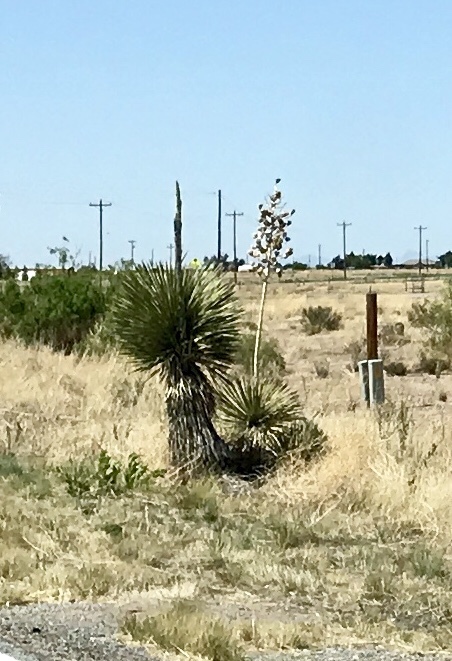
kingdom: Plantae
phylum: Tracheophyta
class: Liliopsida
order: Asparagales
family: Asparagaceae
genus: Yucca
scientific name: Yucca elata
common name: Palmella
